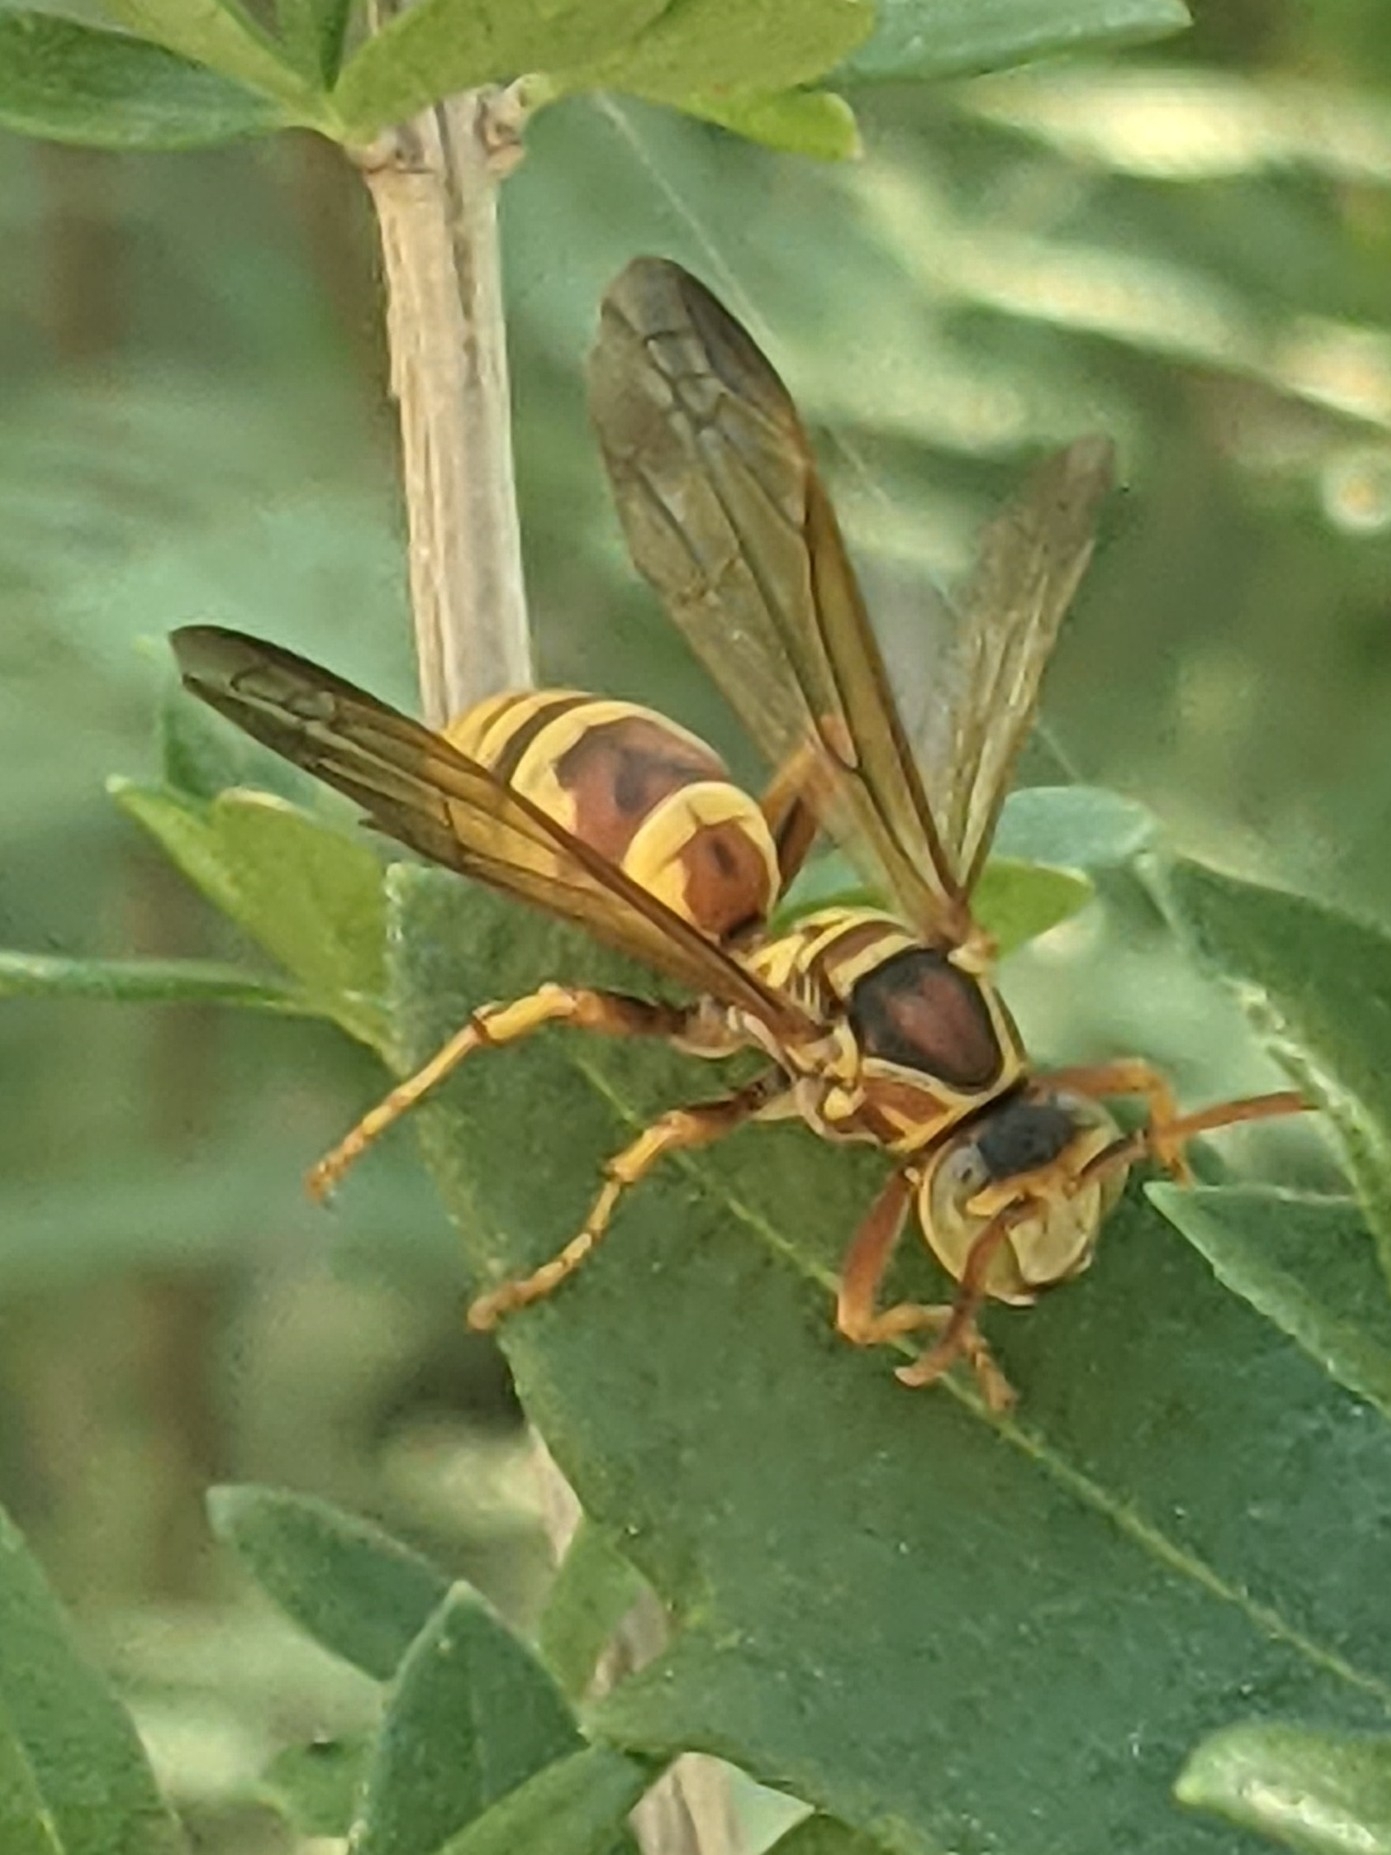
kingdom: Animalia
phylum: Arthropoda
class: Insecta
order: Hymenoptera
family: Eumenidae
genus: Polistes
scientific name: Polistes dorsalis
